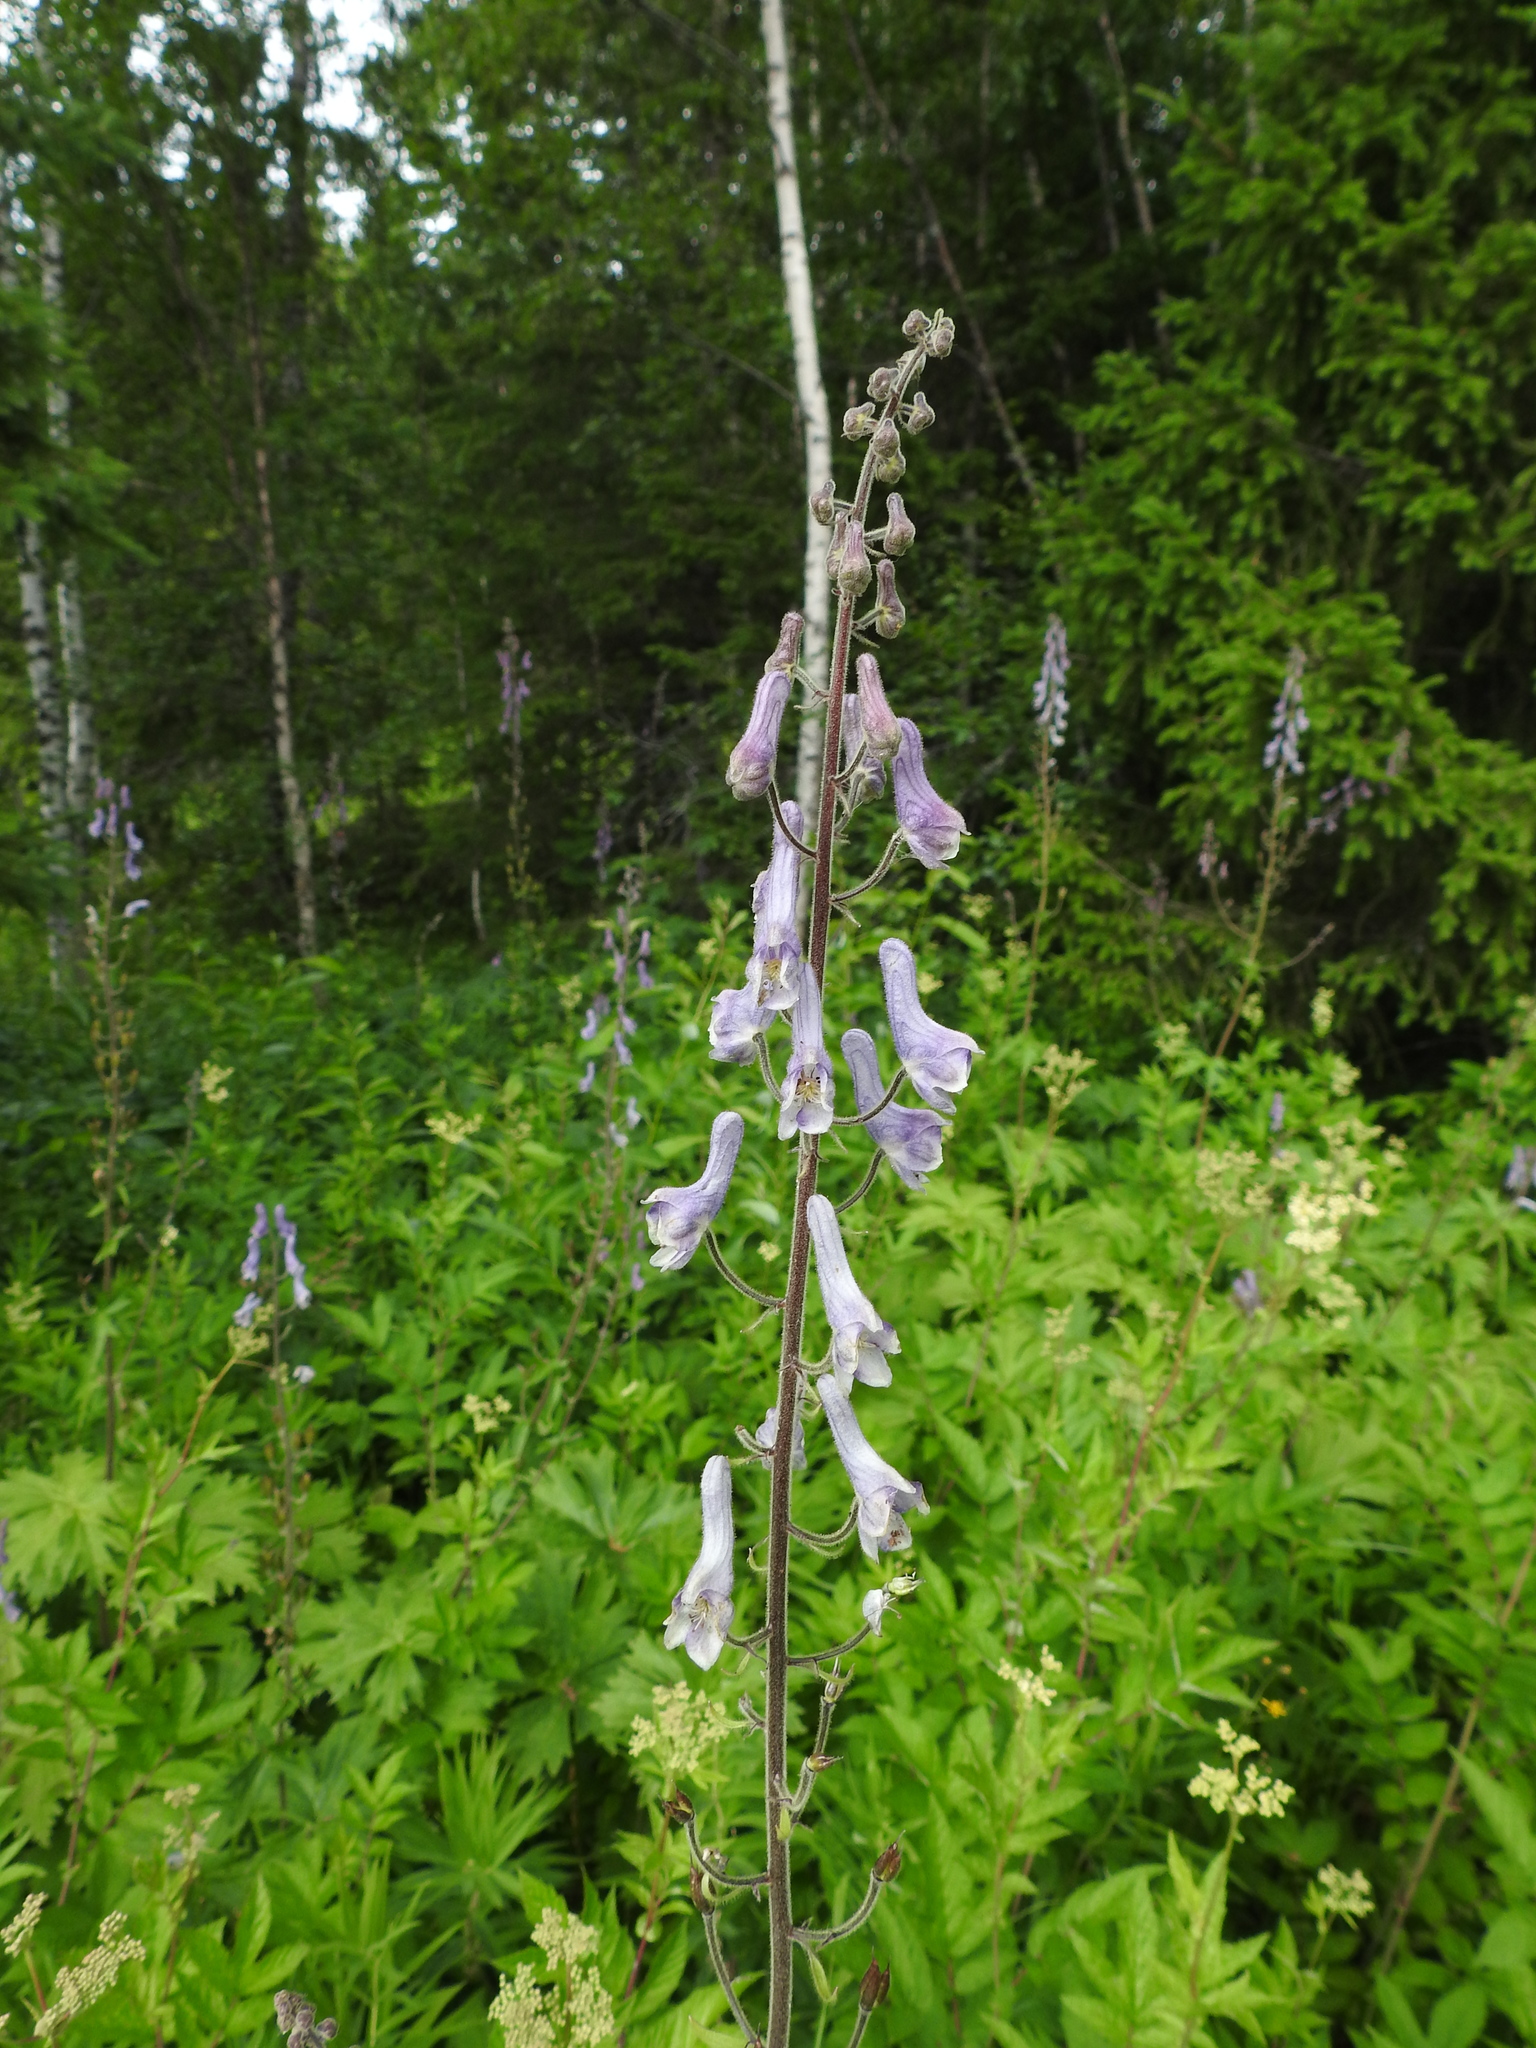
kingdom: Plantae
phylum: Tracheophyta
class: Magnoliopsida
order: Ranunculales
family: Ranunculaceae
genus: Aconitum
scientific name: Aconitum septentrionale
